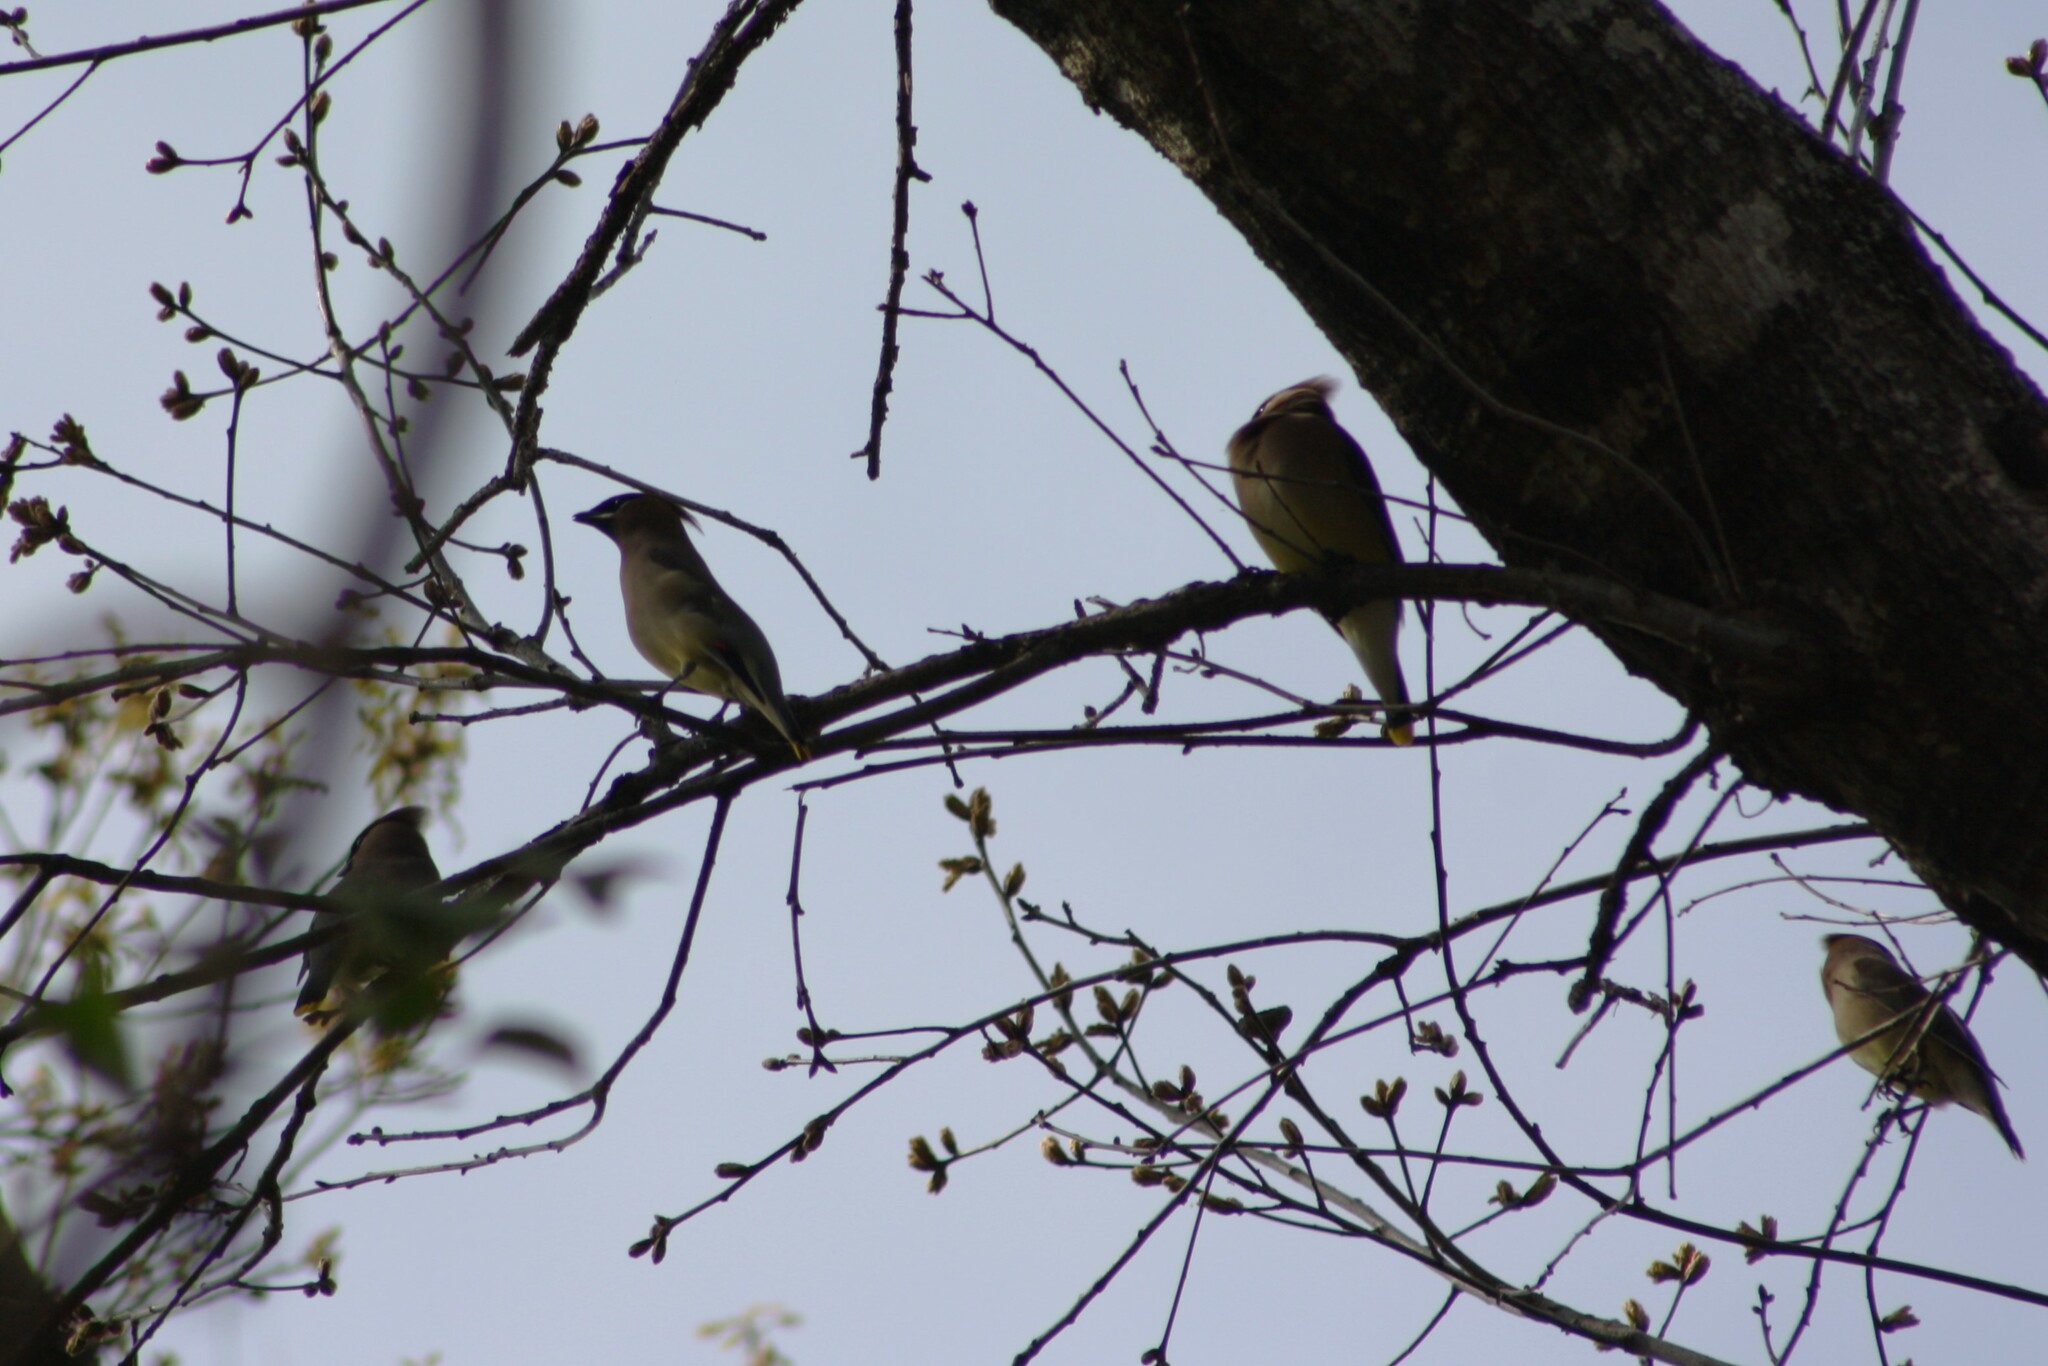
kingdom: Animalia
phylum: Chordata
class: Aves
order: Passeriformes
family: Bombycillidae
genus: Bombycilla
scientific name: Bombycilla cedrorum
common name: Cedar waxwing
